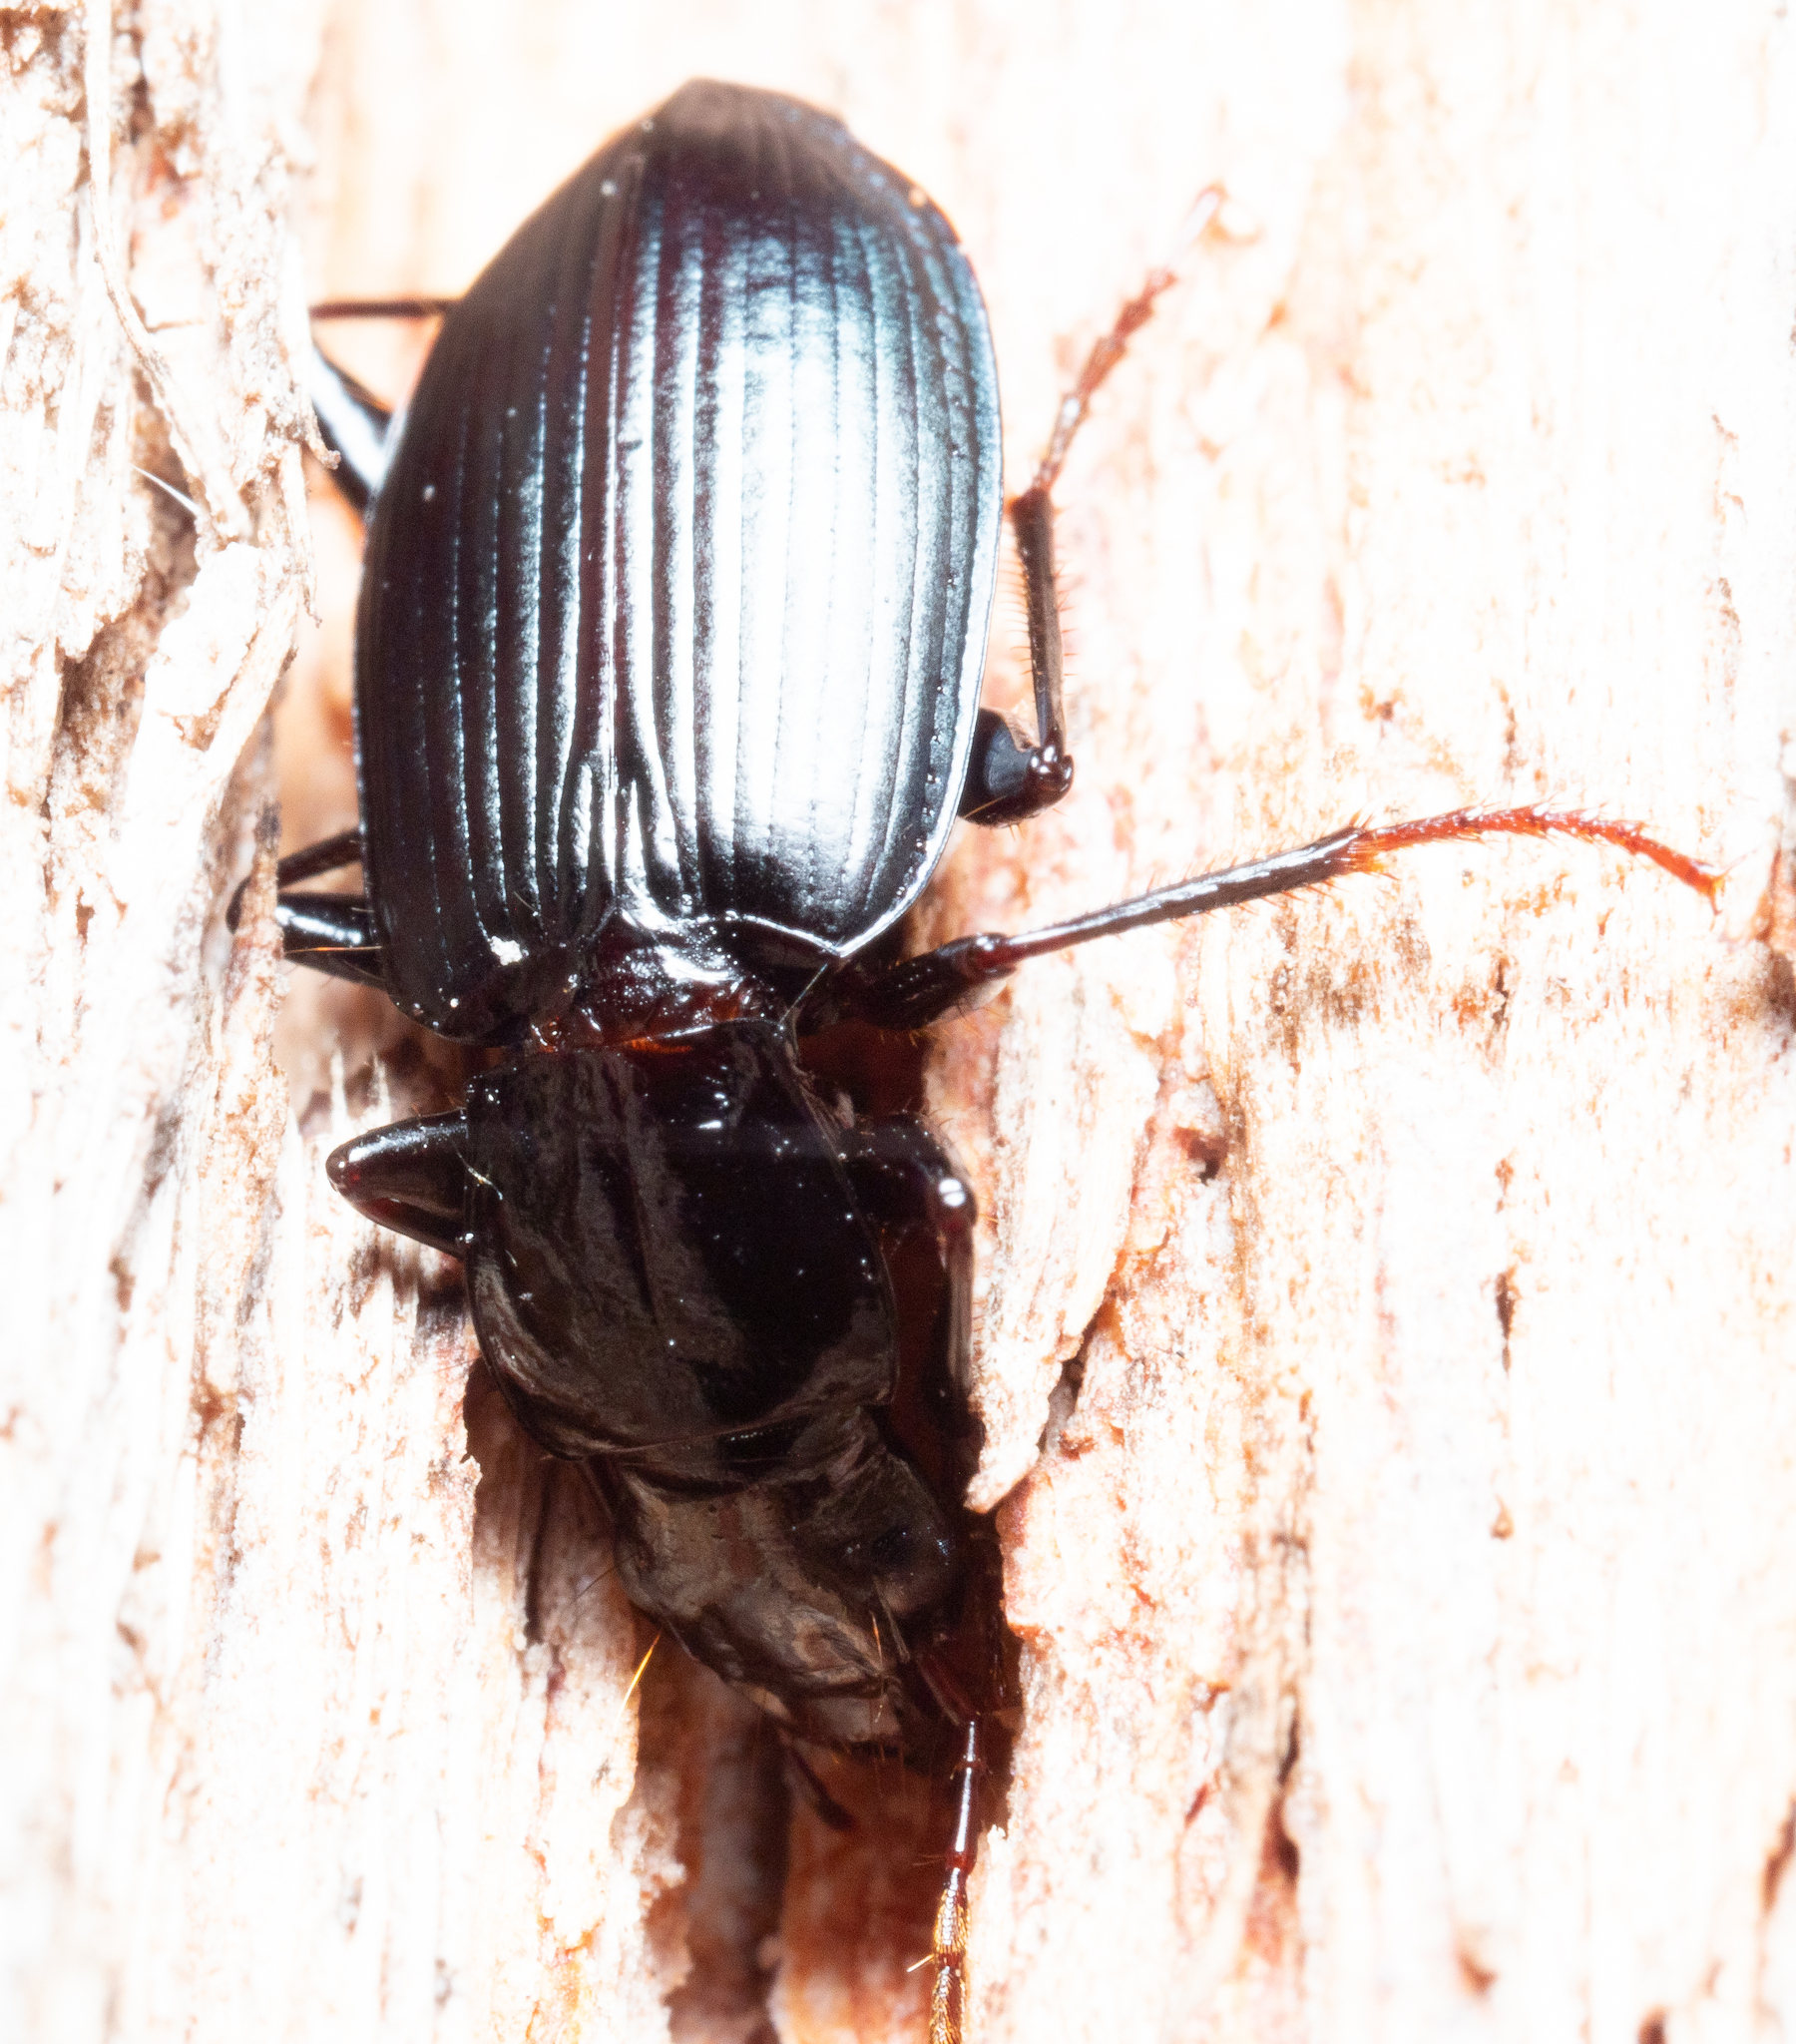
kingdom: Animalia
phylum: Arthropoda
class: Insecta
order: Coleoptera
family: Carabidae
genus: Laemostenus
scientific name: Laemostenus complanatus
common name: Cosmopolitan ground beetle
